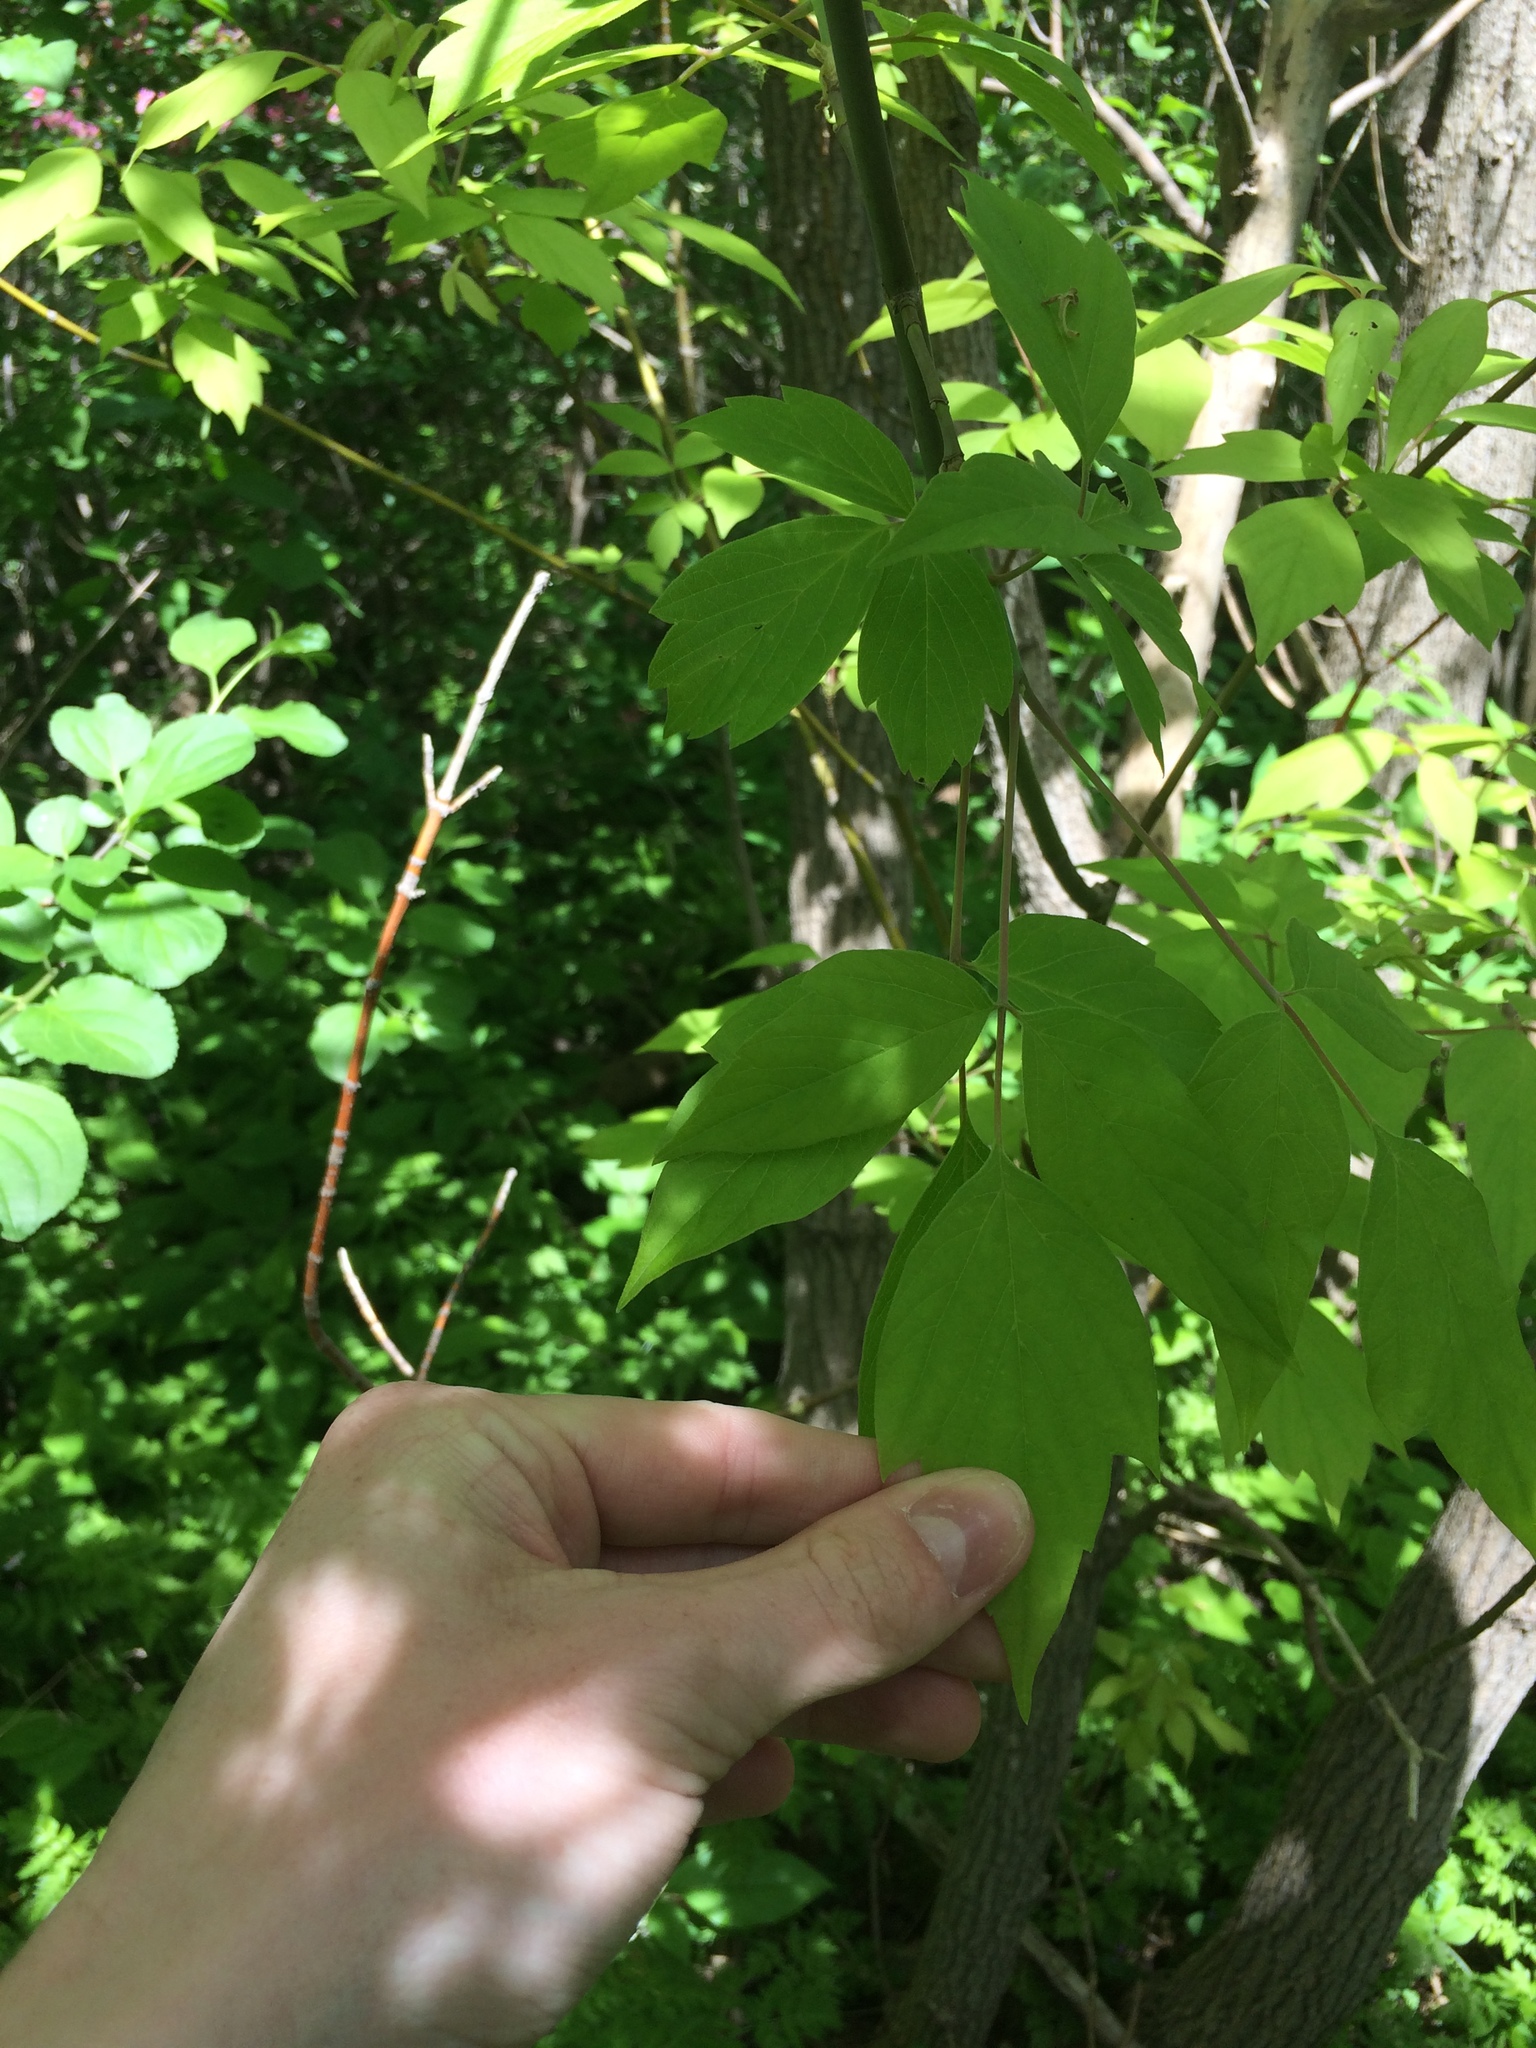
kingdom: Plantae
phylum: Tracheophyta
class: Magnoliopsida
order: Sapindales
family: Sapindaceae
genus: Acer
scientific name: Acer negundo
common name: Ashleaf maple
